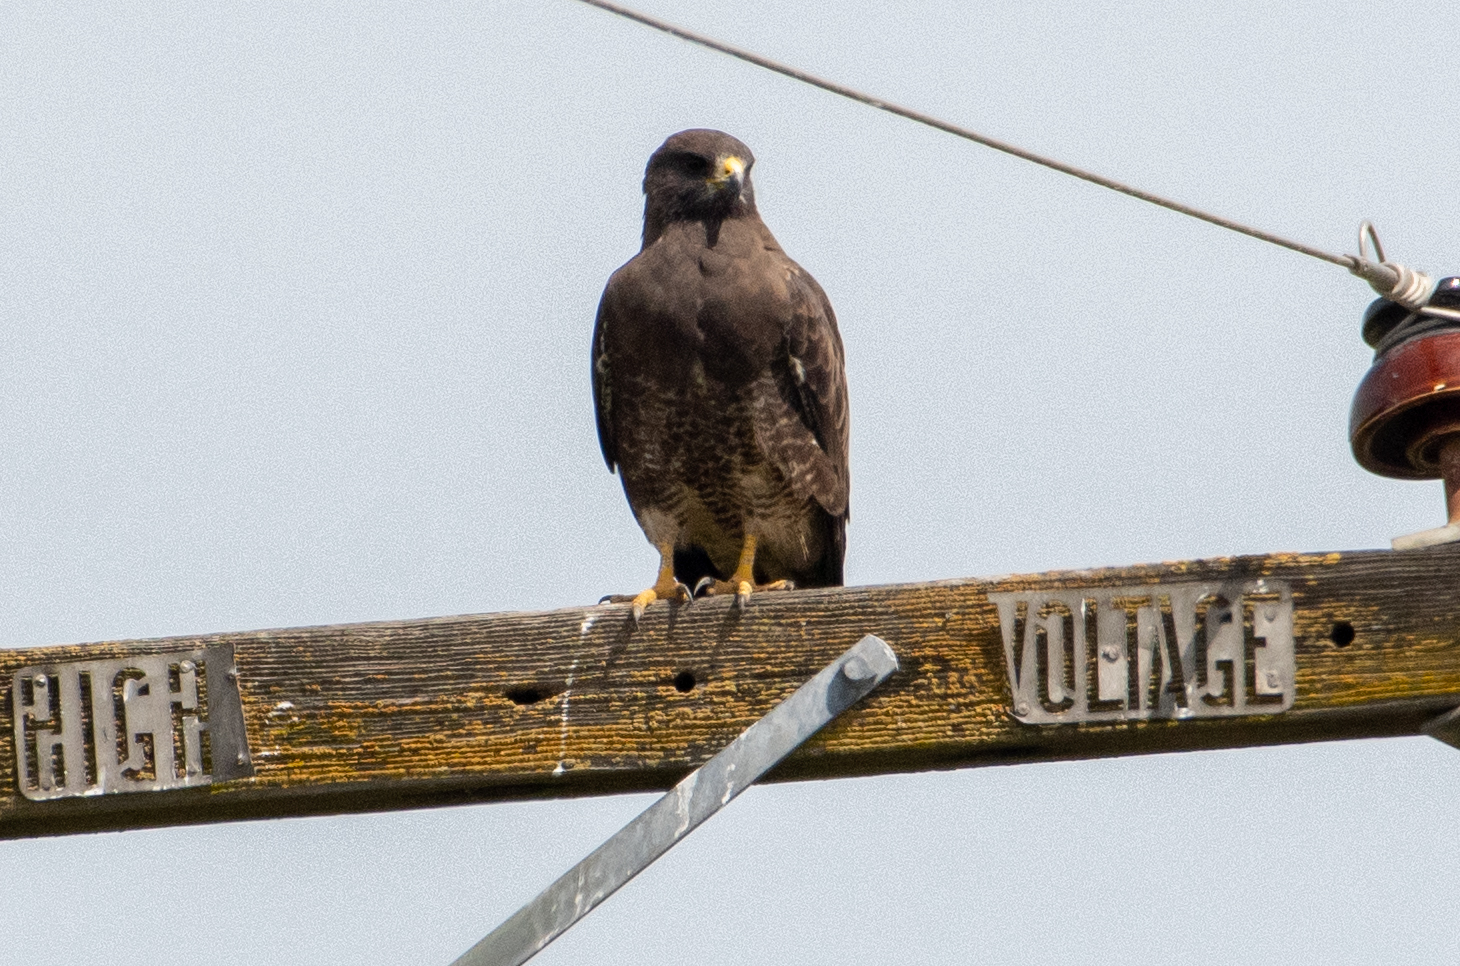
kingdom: Animalia
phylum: Chordata
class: Aves
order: Accipitriformes
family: Accipitridae
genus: Buteo
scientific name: Buteo swainsoni
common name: Swainson's hawk
